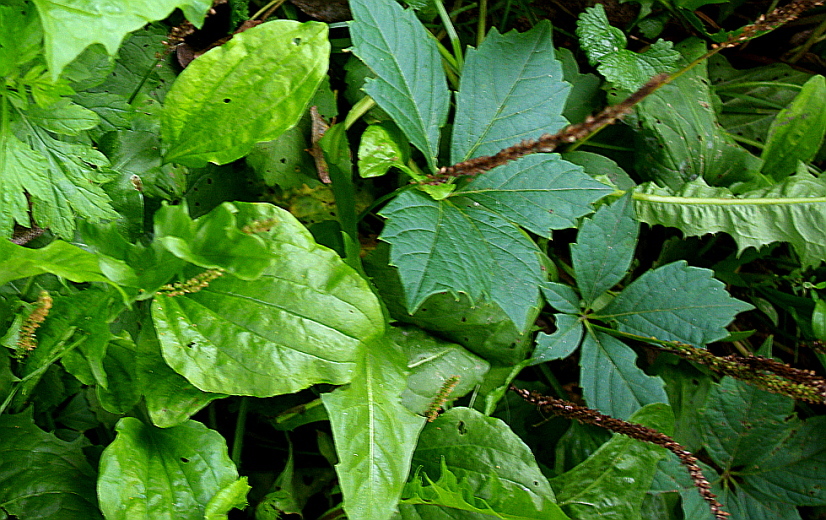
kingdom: Plantae
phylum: Tracheophyta
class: Magnoliopsida
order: Lamiales
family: Plantaginaceae
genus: Plantago
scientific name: Plantago major
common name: Common plantain
